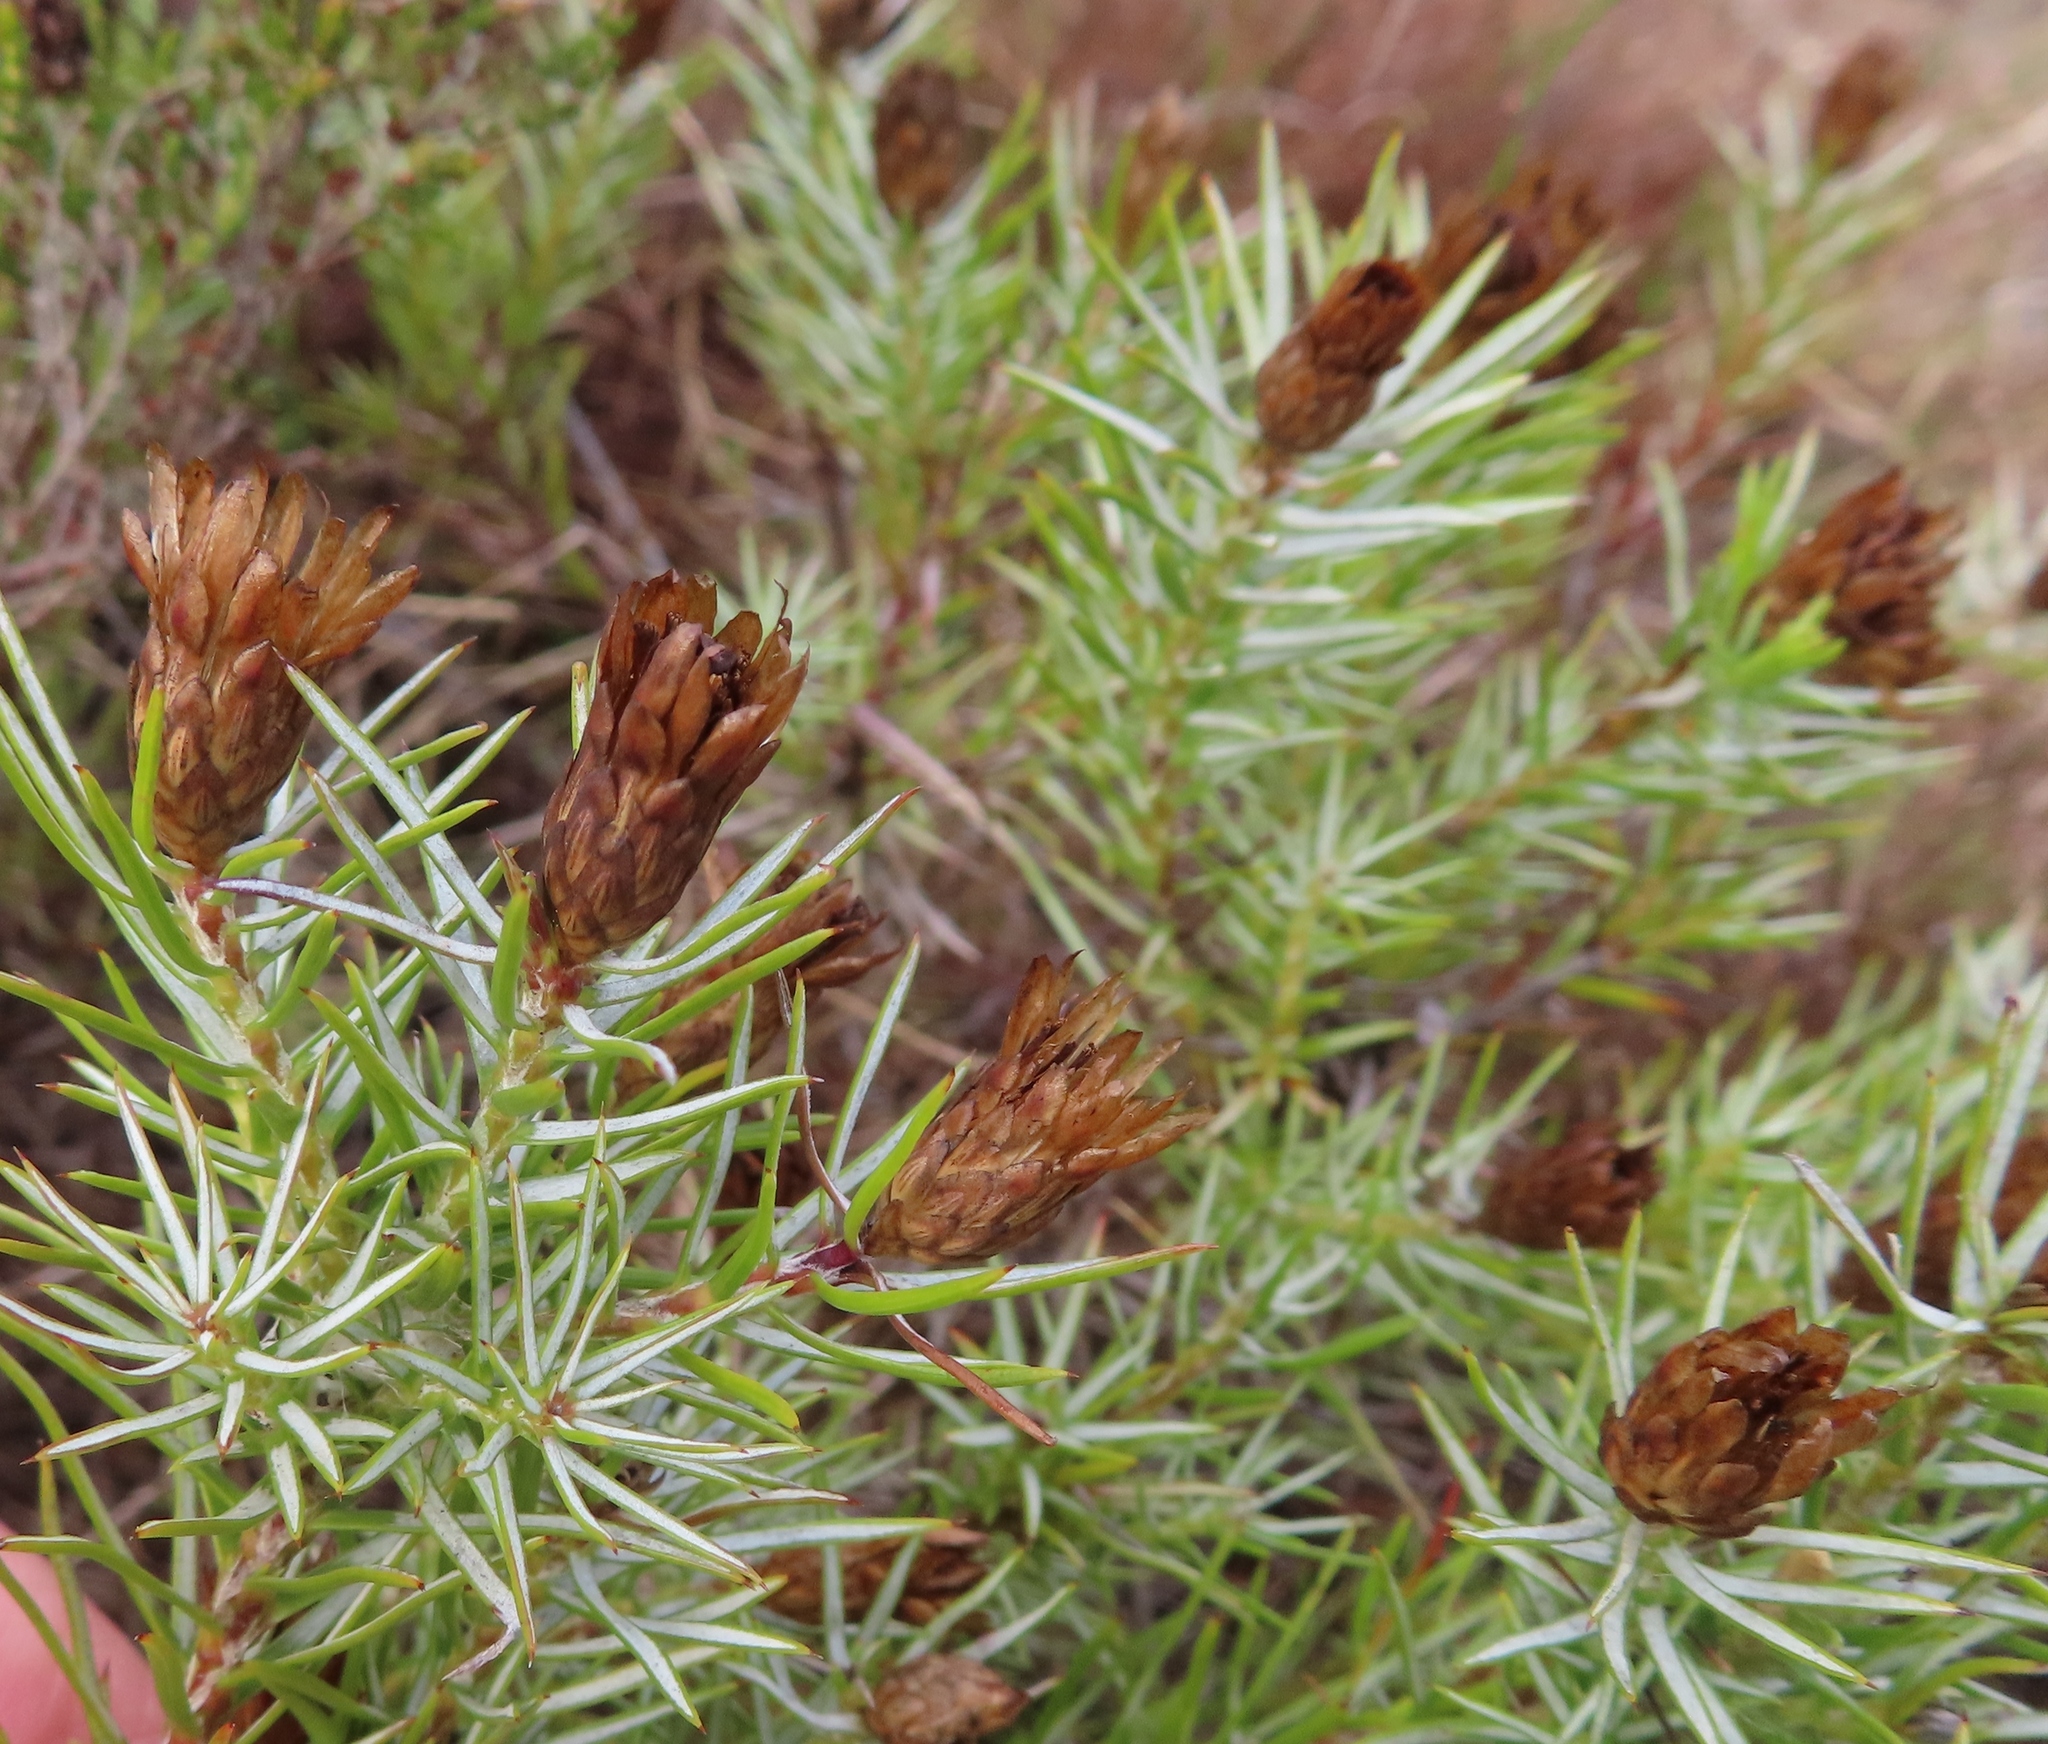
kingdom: Plantae
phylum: Tracheophyta
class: Magnoliopsida
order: Asterales
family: Asteraceae
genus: Oedera
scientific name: Oedera pungens
